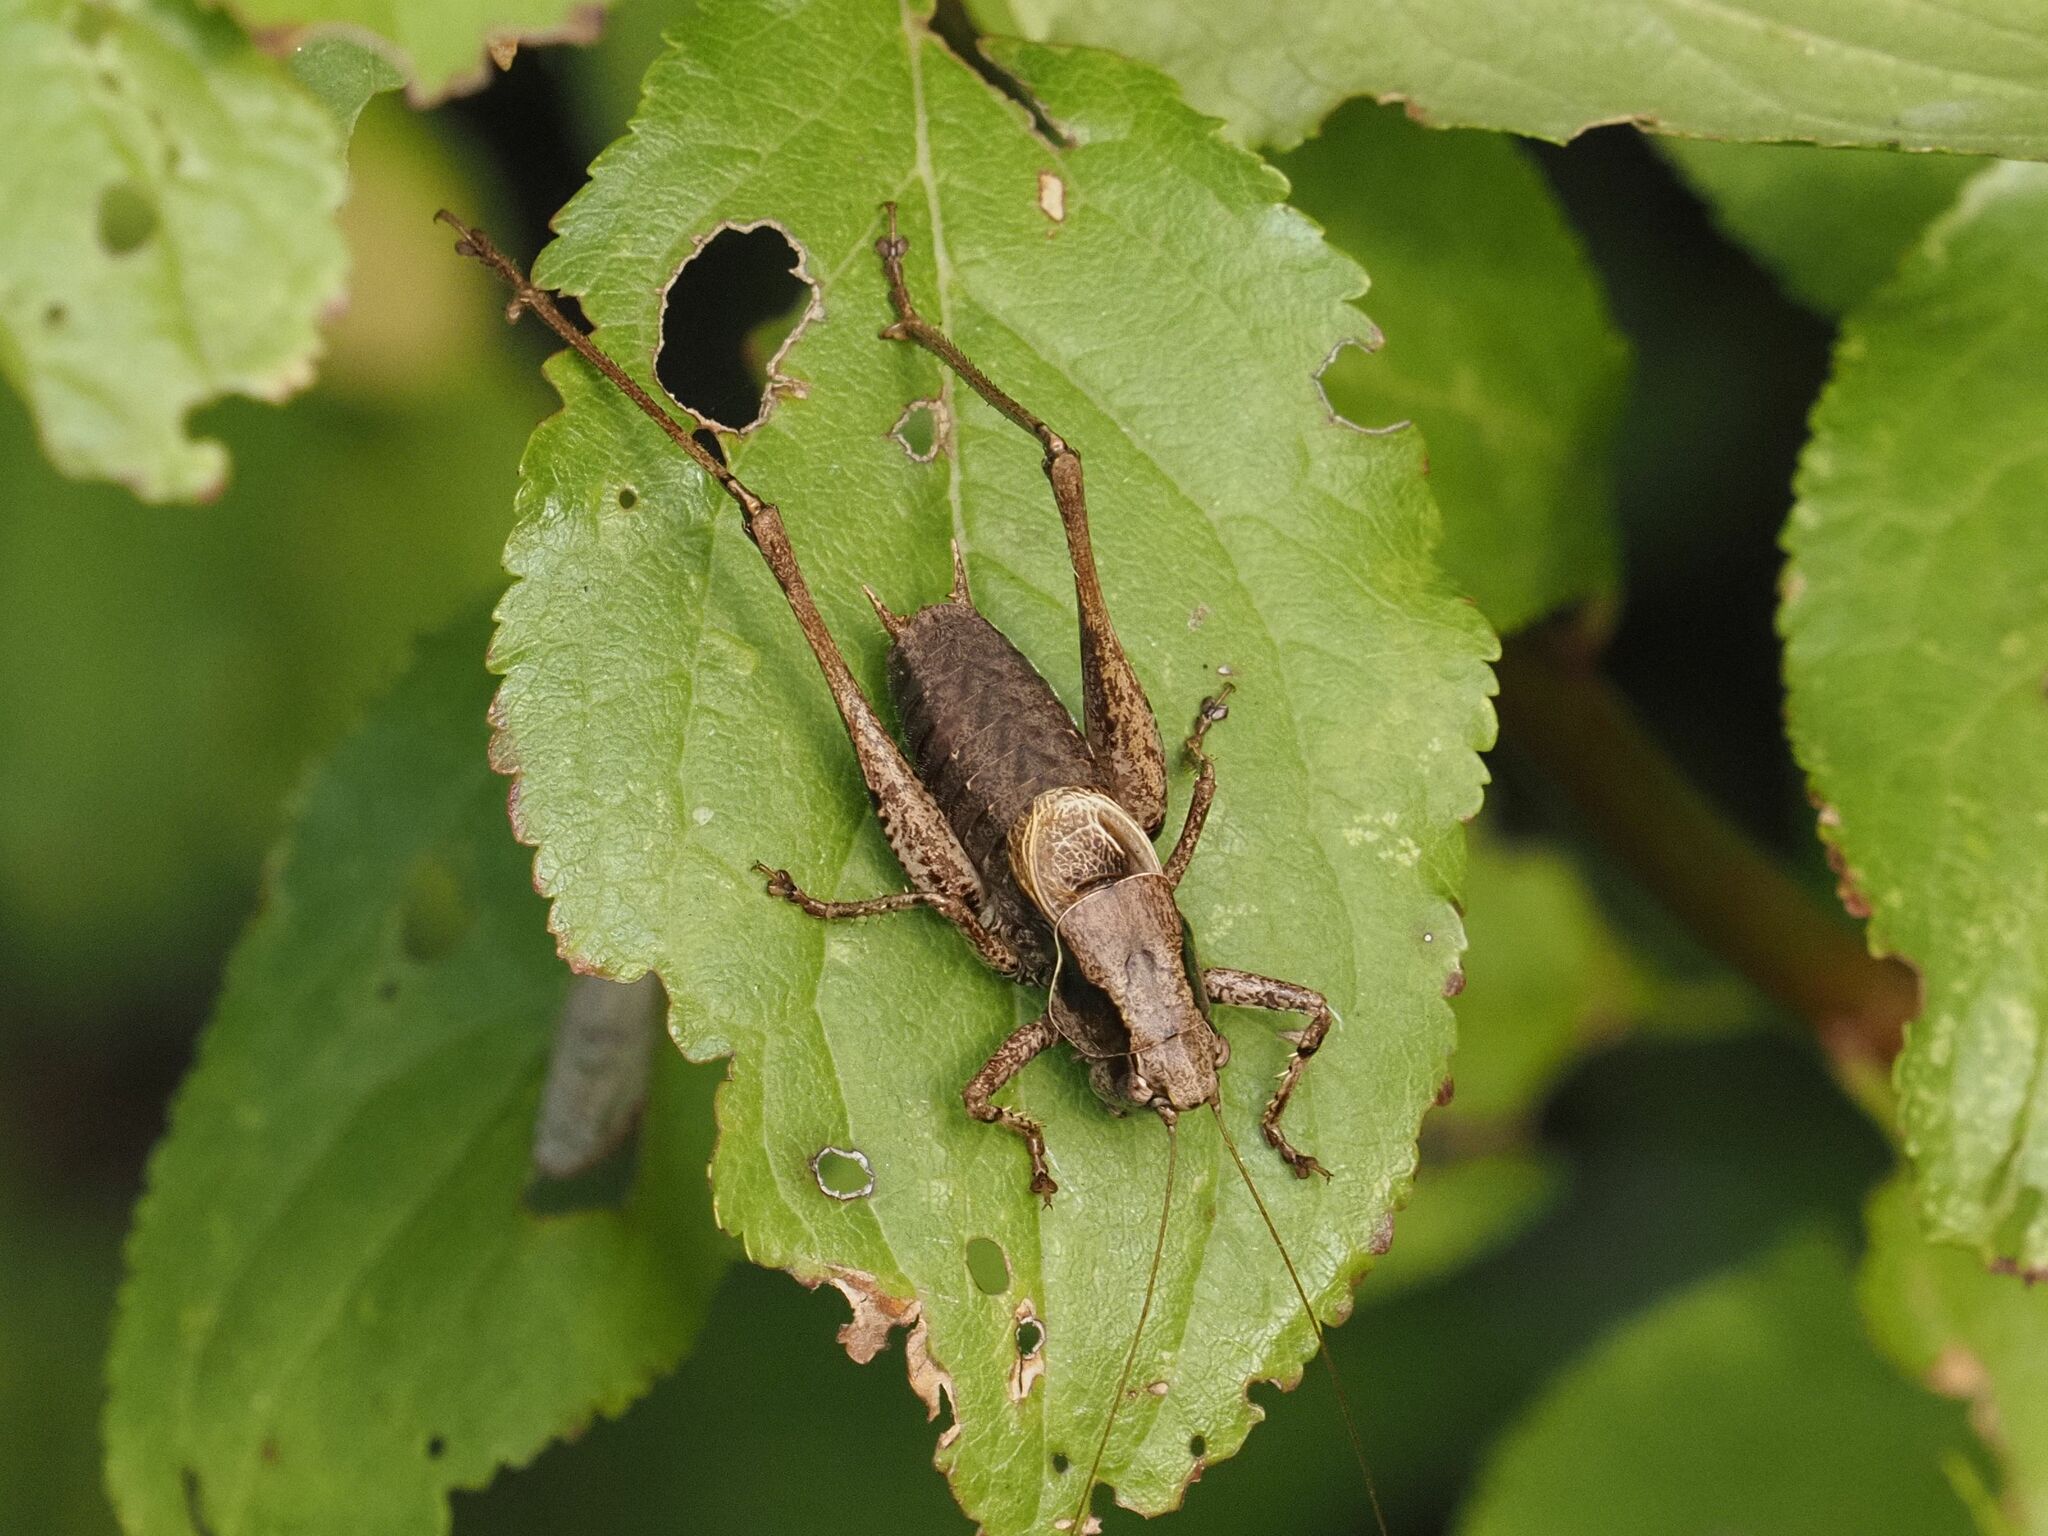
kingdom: Animalia
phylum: Arthropoda
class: Insecta
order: Orthoptera
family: Tettigoniidae
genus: Pholidoptera
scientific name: Pholidoptera griseoaptera
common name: Dark bush-cricket
